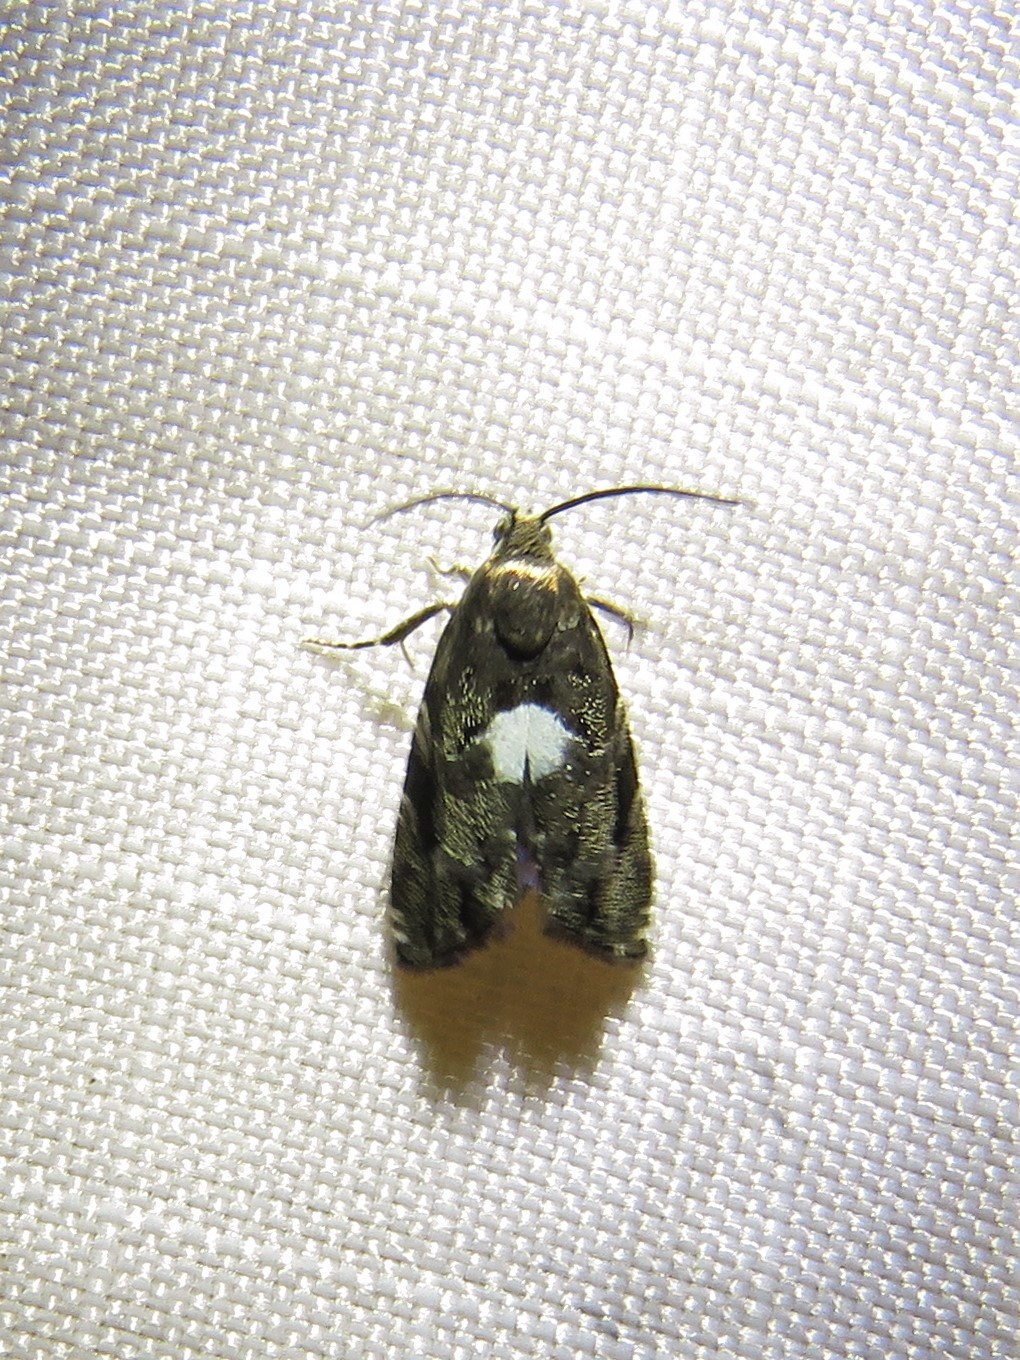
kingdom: Animalia
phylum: Arthropoda
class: Insecta
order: Lepidoptera
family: Tortricidae
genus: Cydia
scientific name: Cydia albimaculana
